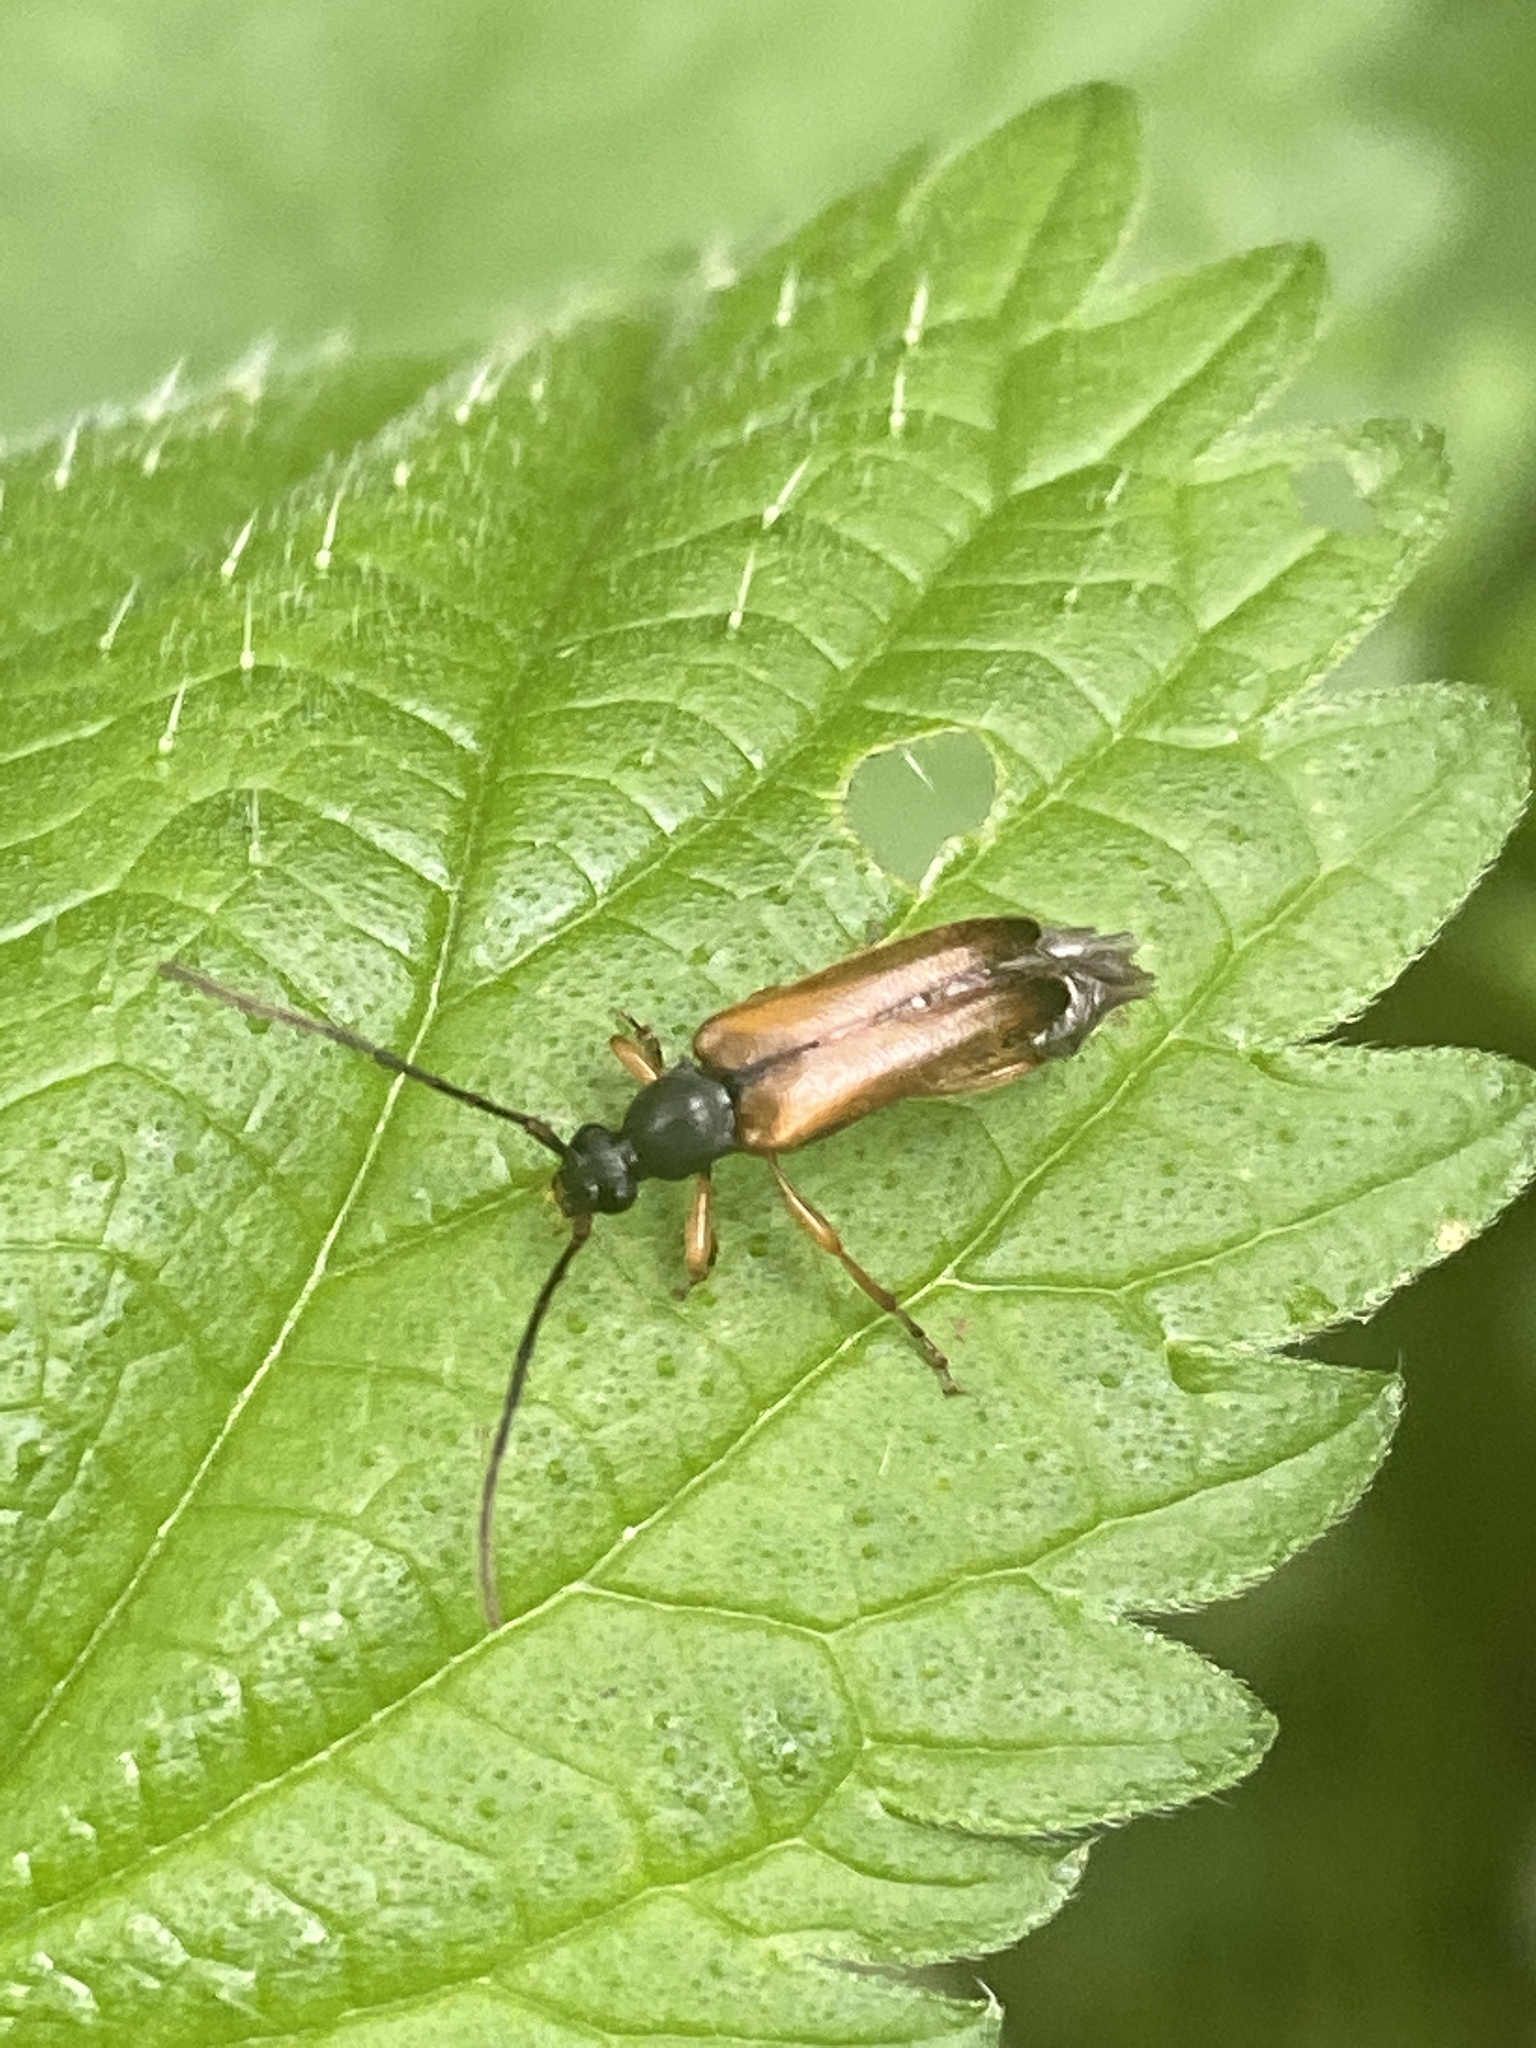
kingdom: Animalia
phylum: Arthropoda
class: Insecta
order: Coleoptera
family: Cerambycidae
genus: Alosterna
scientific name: Alosterna tabacicolor
